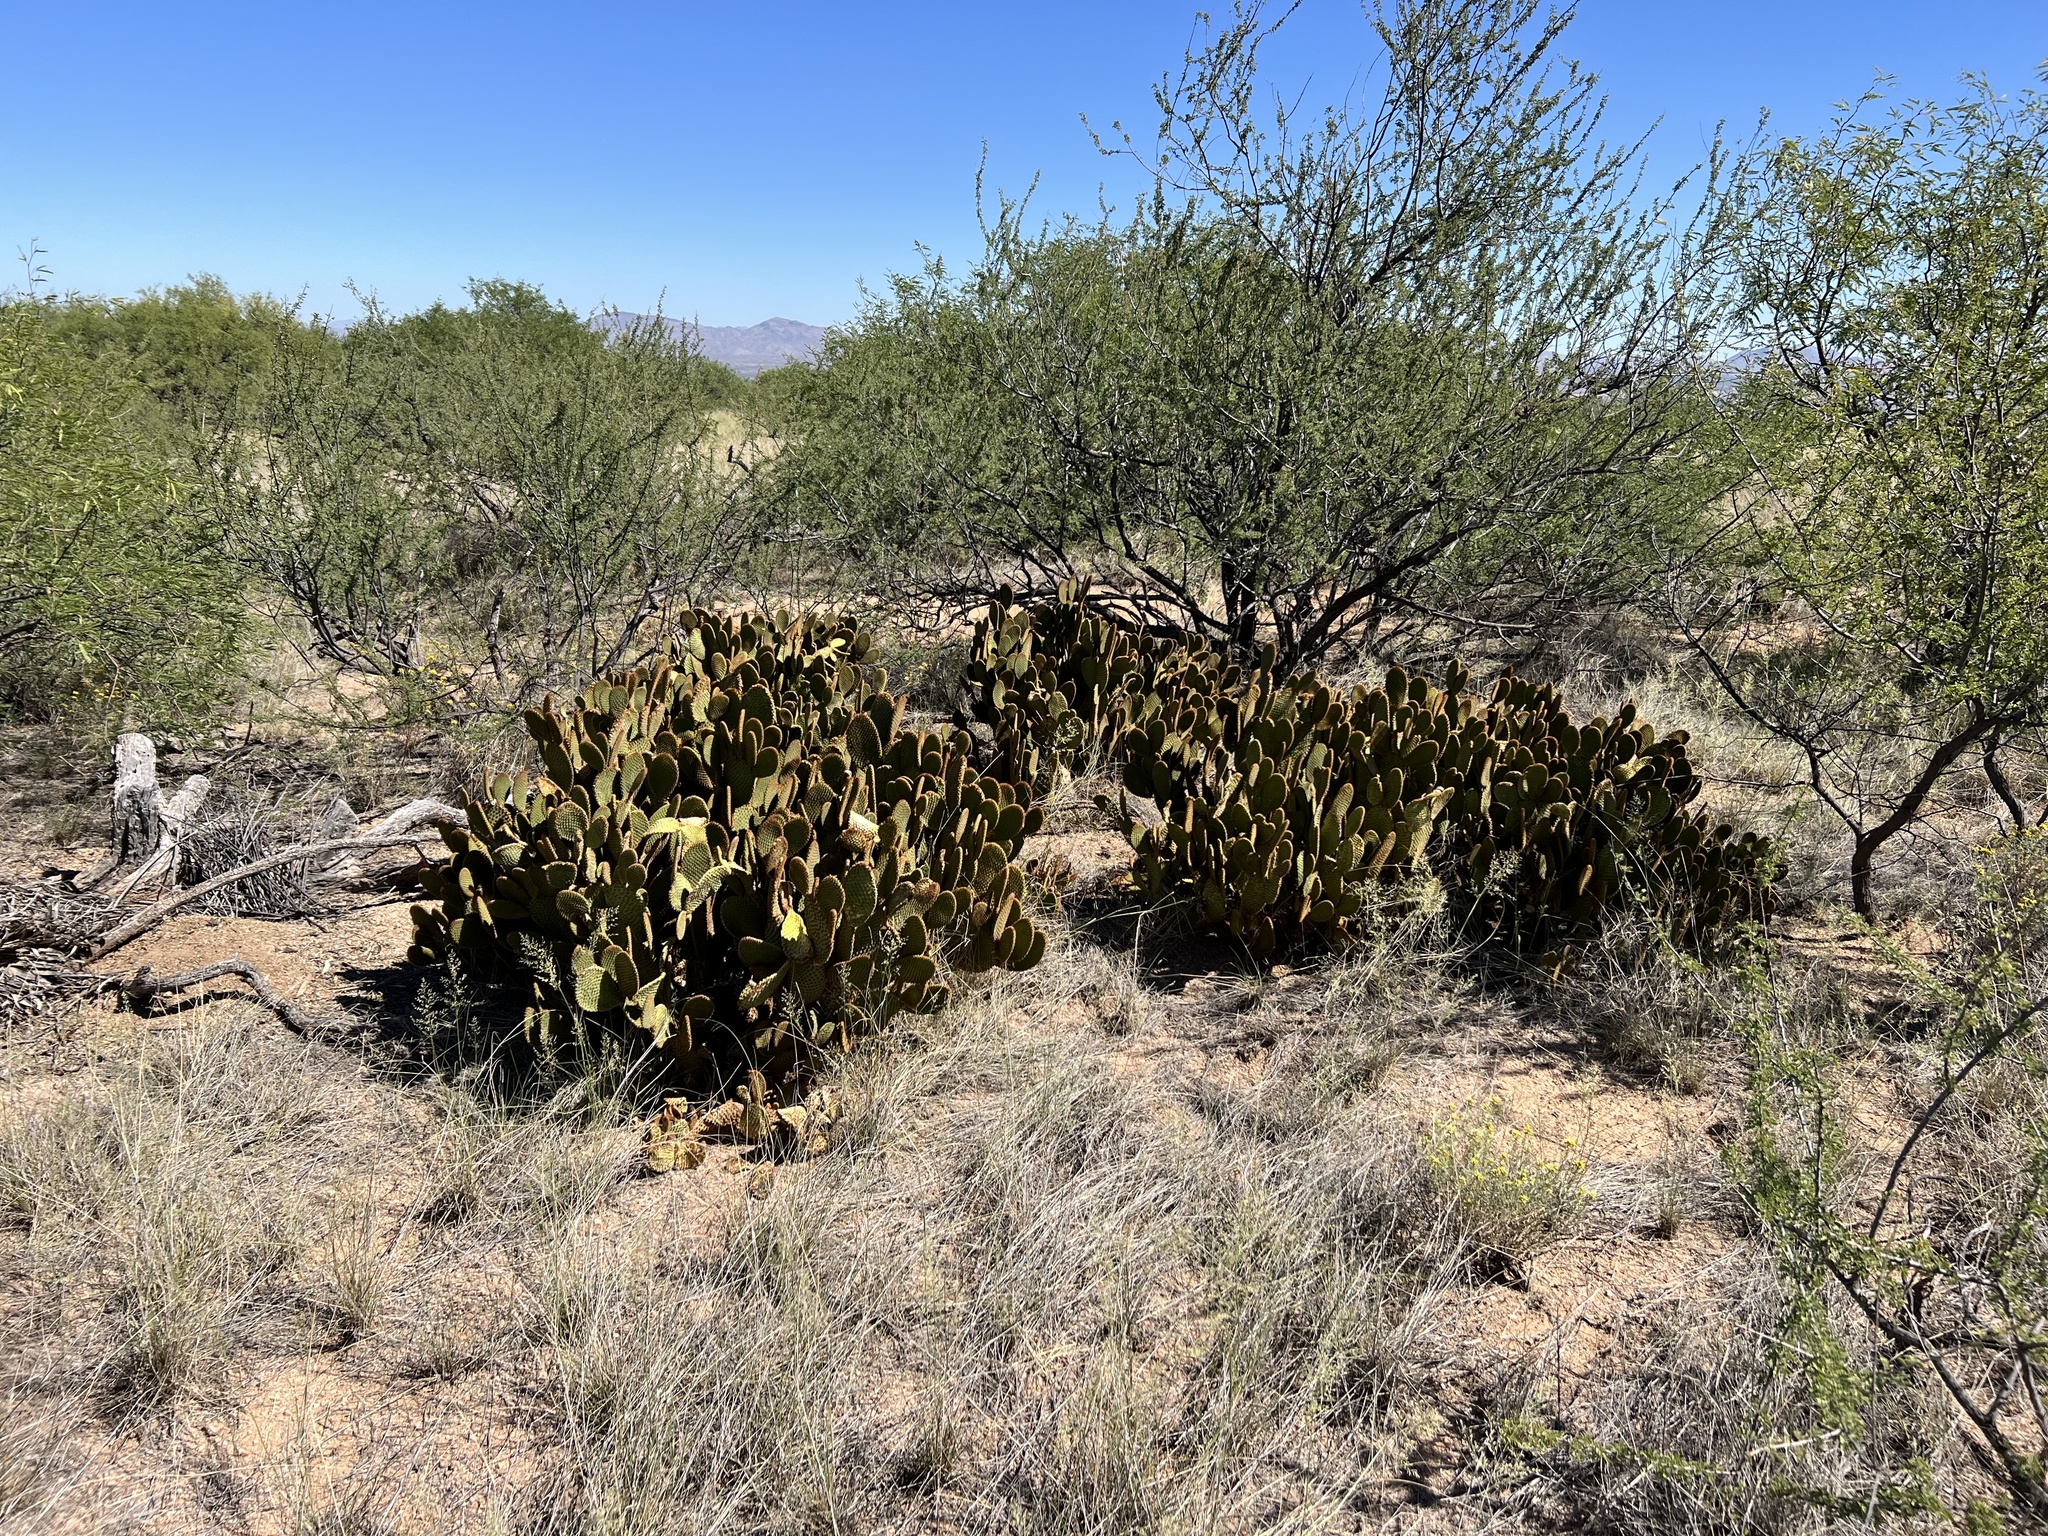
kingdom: Plantae
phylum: Tracheophyta
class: Magnoliopsida
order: Caryophyllales
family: Cactaceae
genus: Opuntia
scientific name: Opuntia microdasys
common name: Angel's-wings
